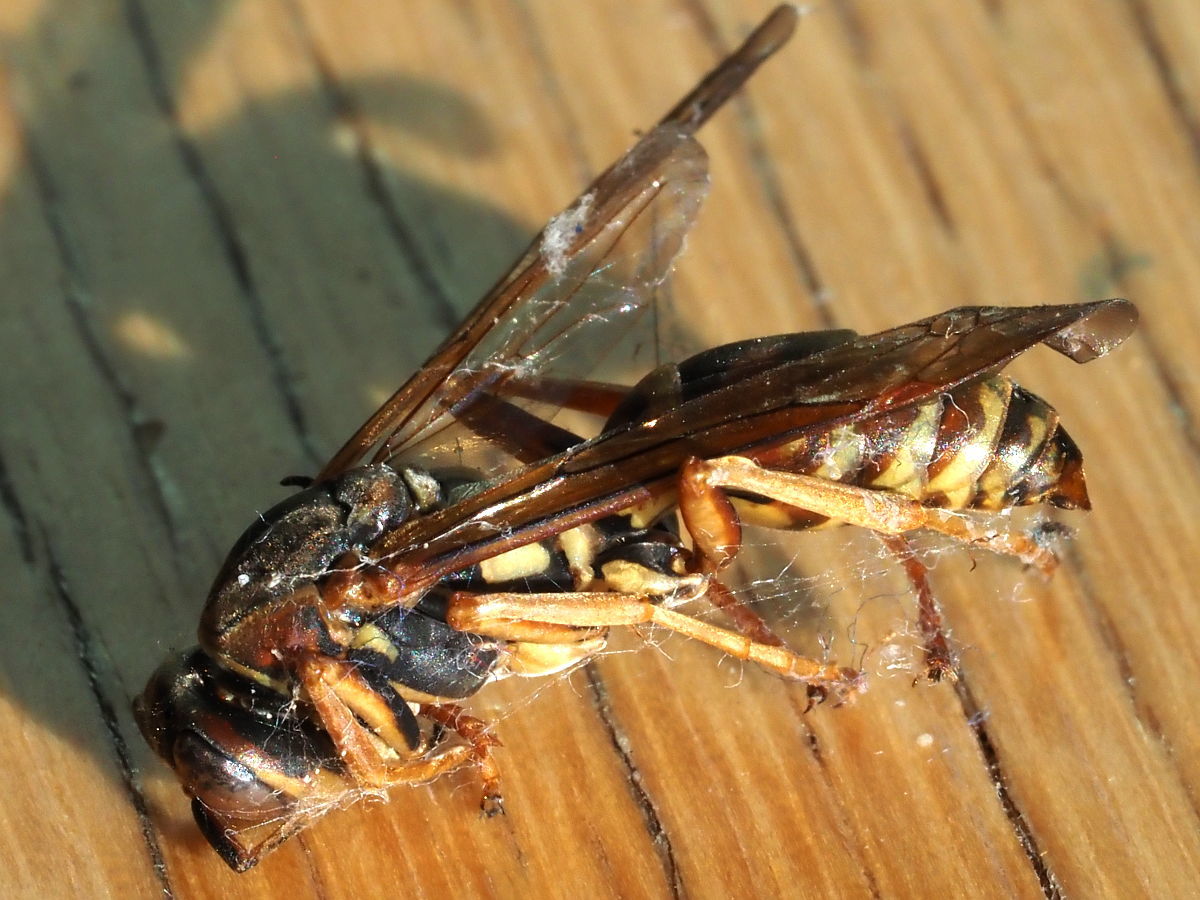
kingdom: Animalia
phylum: Arthropoda
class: Insecta
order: Hymenoptera
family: Eumenidae
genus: Polistes
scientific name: Polistes fuscatus
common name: Dark paper wasp
